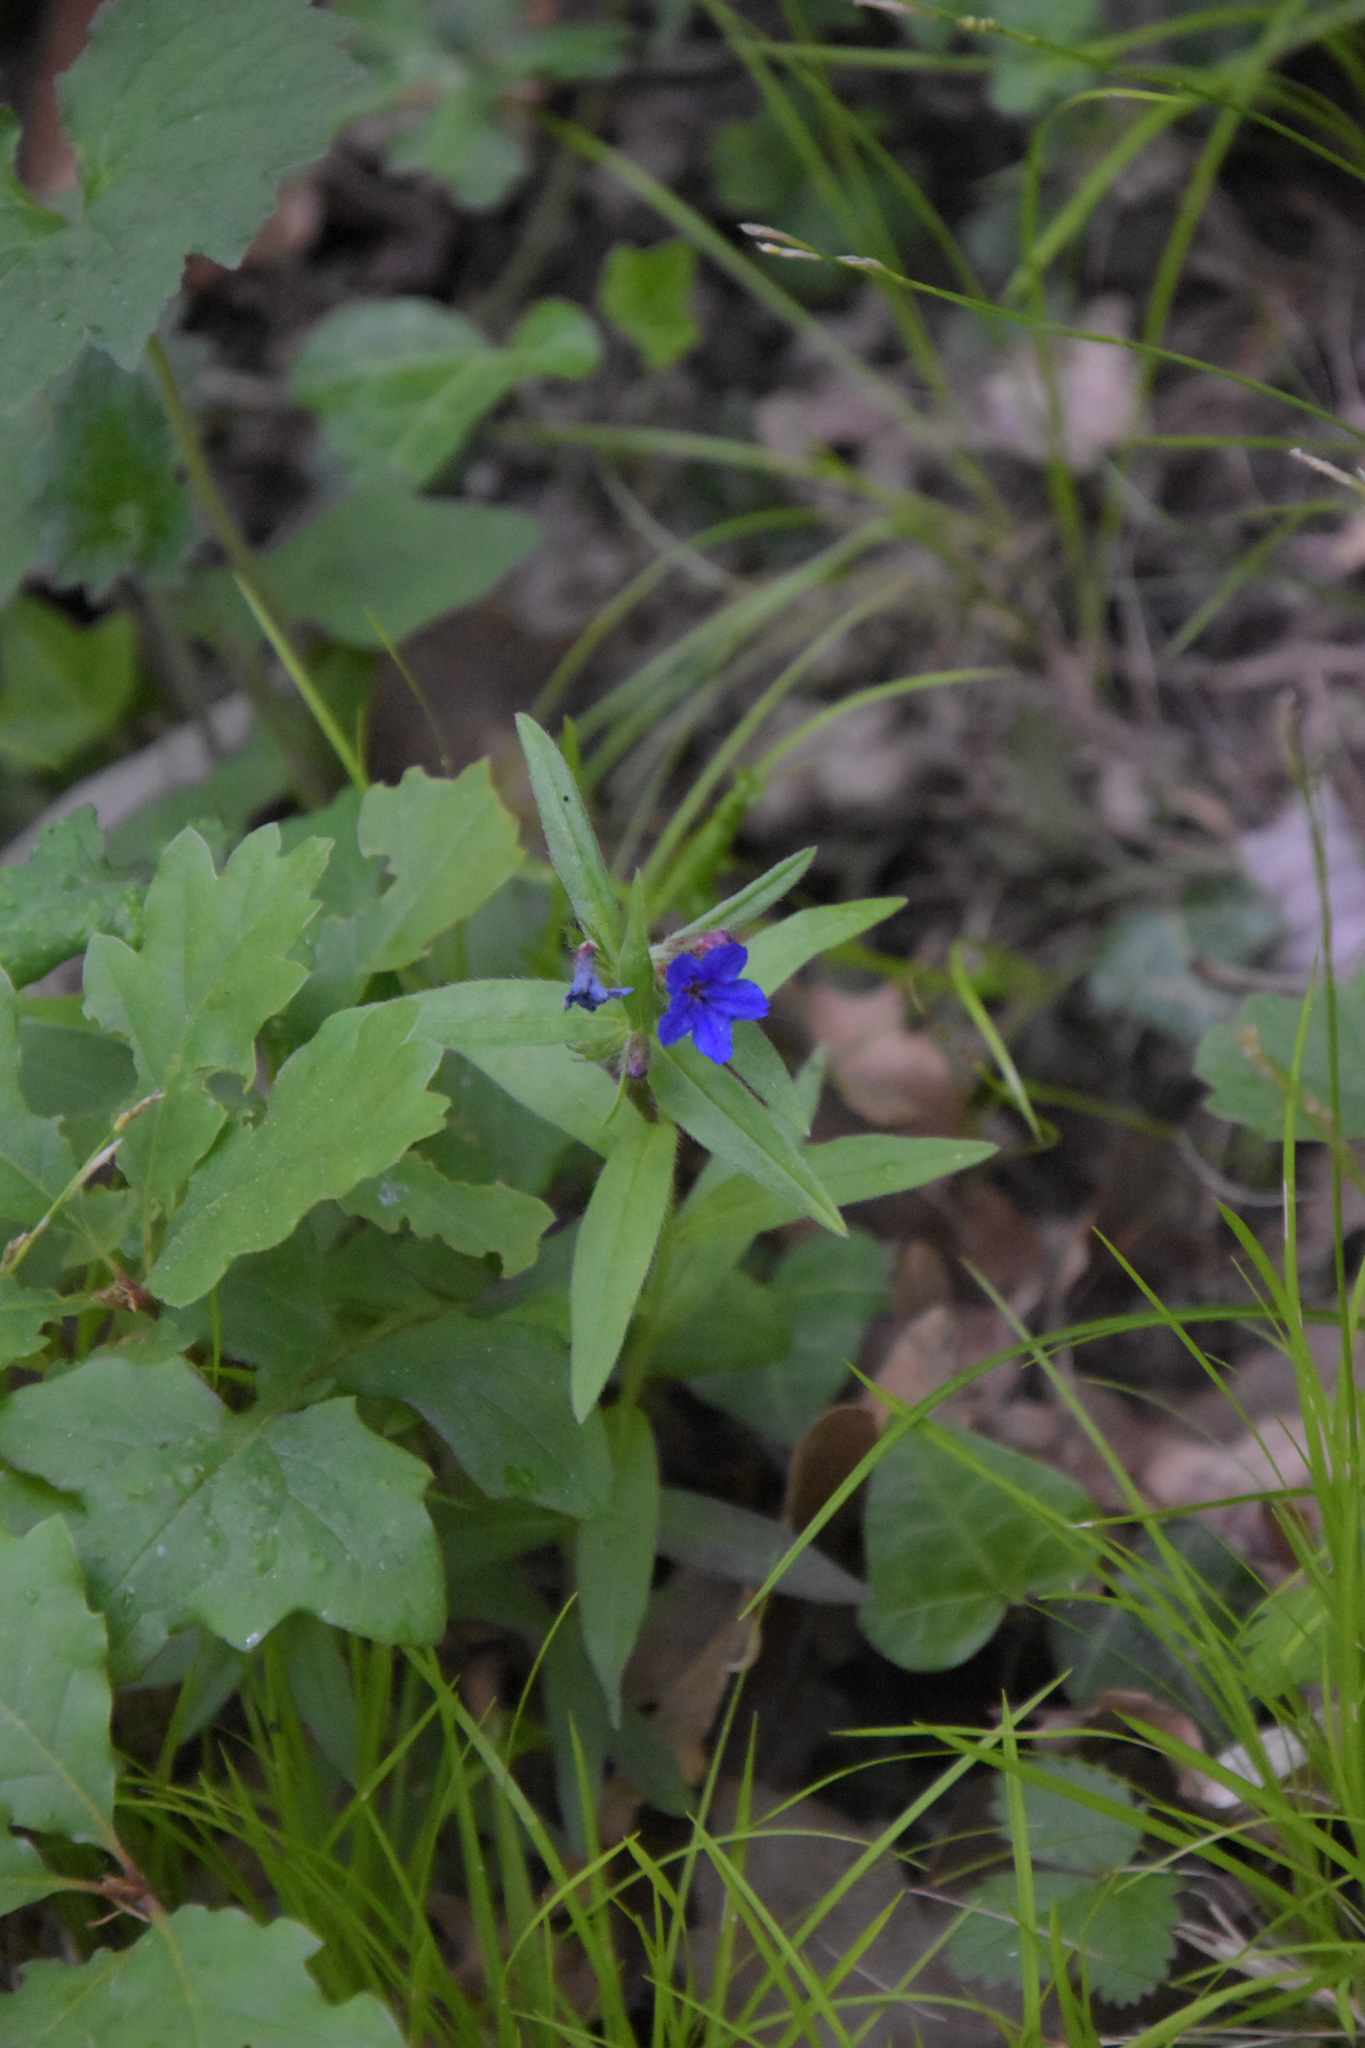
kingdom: Plantae
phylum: Tracheophyta
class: Magnoliopsida
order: Boraginales
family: Boraginaceae
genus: Aegonychon
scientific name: Aegonychon purpurocaeruleum
